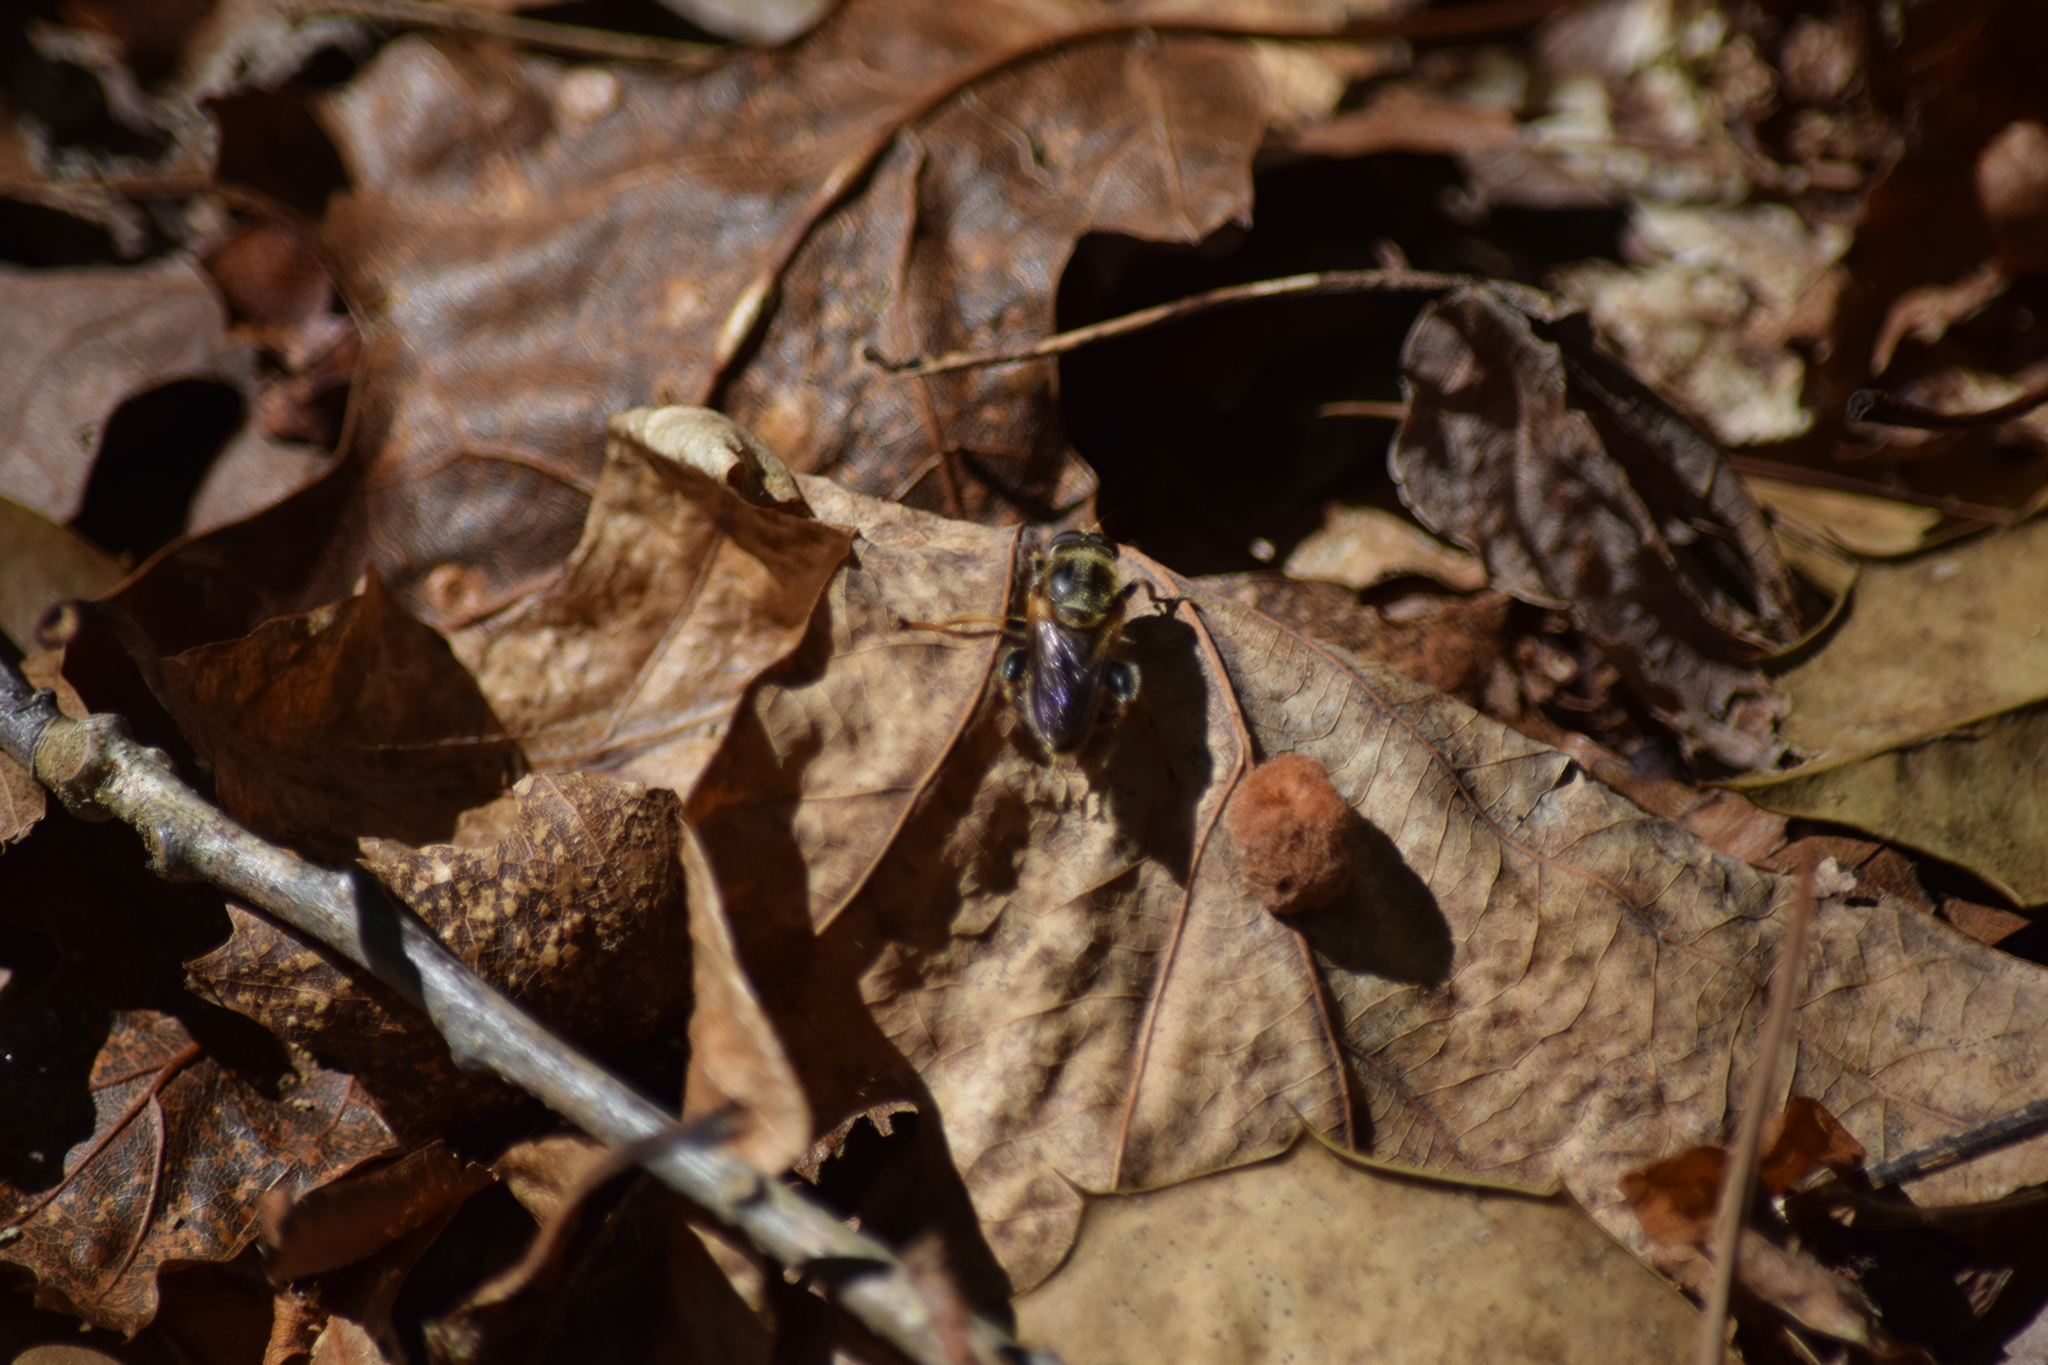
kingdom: Animalia
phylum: Arthropoda
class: Insecta
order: Diptera
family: Syrphidae
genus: Teuchocnemis
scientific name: Teuchocnemis lituratus
